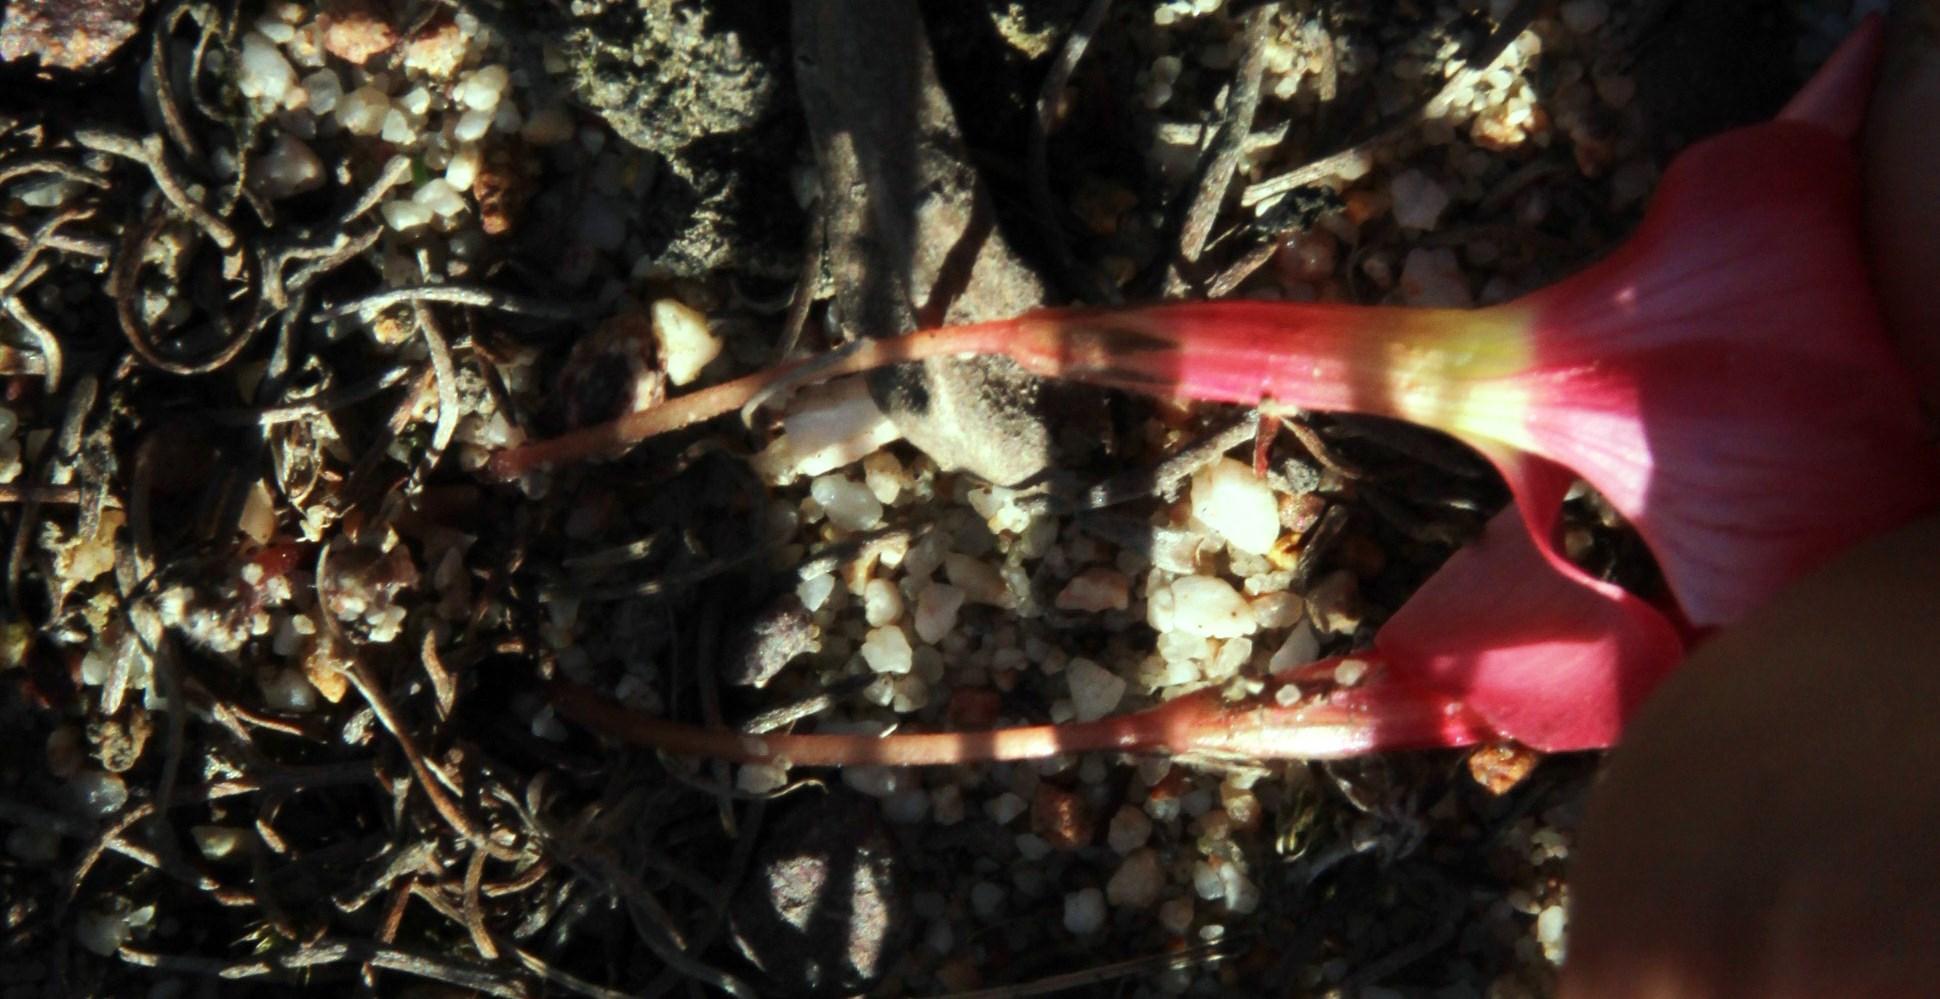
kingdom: Plantae
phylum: Tracheophyta
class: Magnoliopsida
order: Oxalidales
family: Oxalidaceae
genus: Oxalis
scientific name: Oxalis eckloniana
